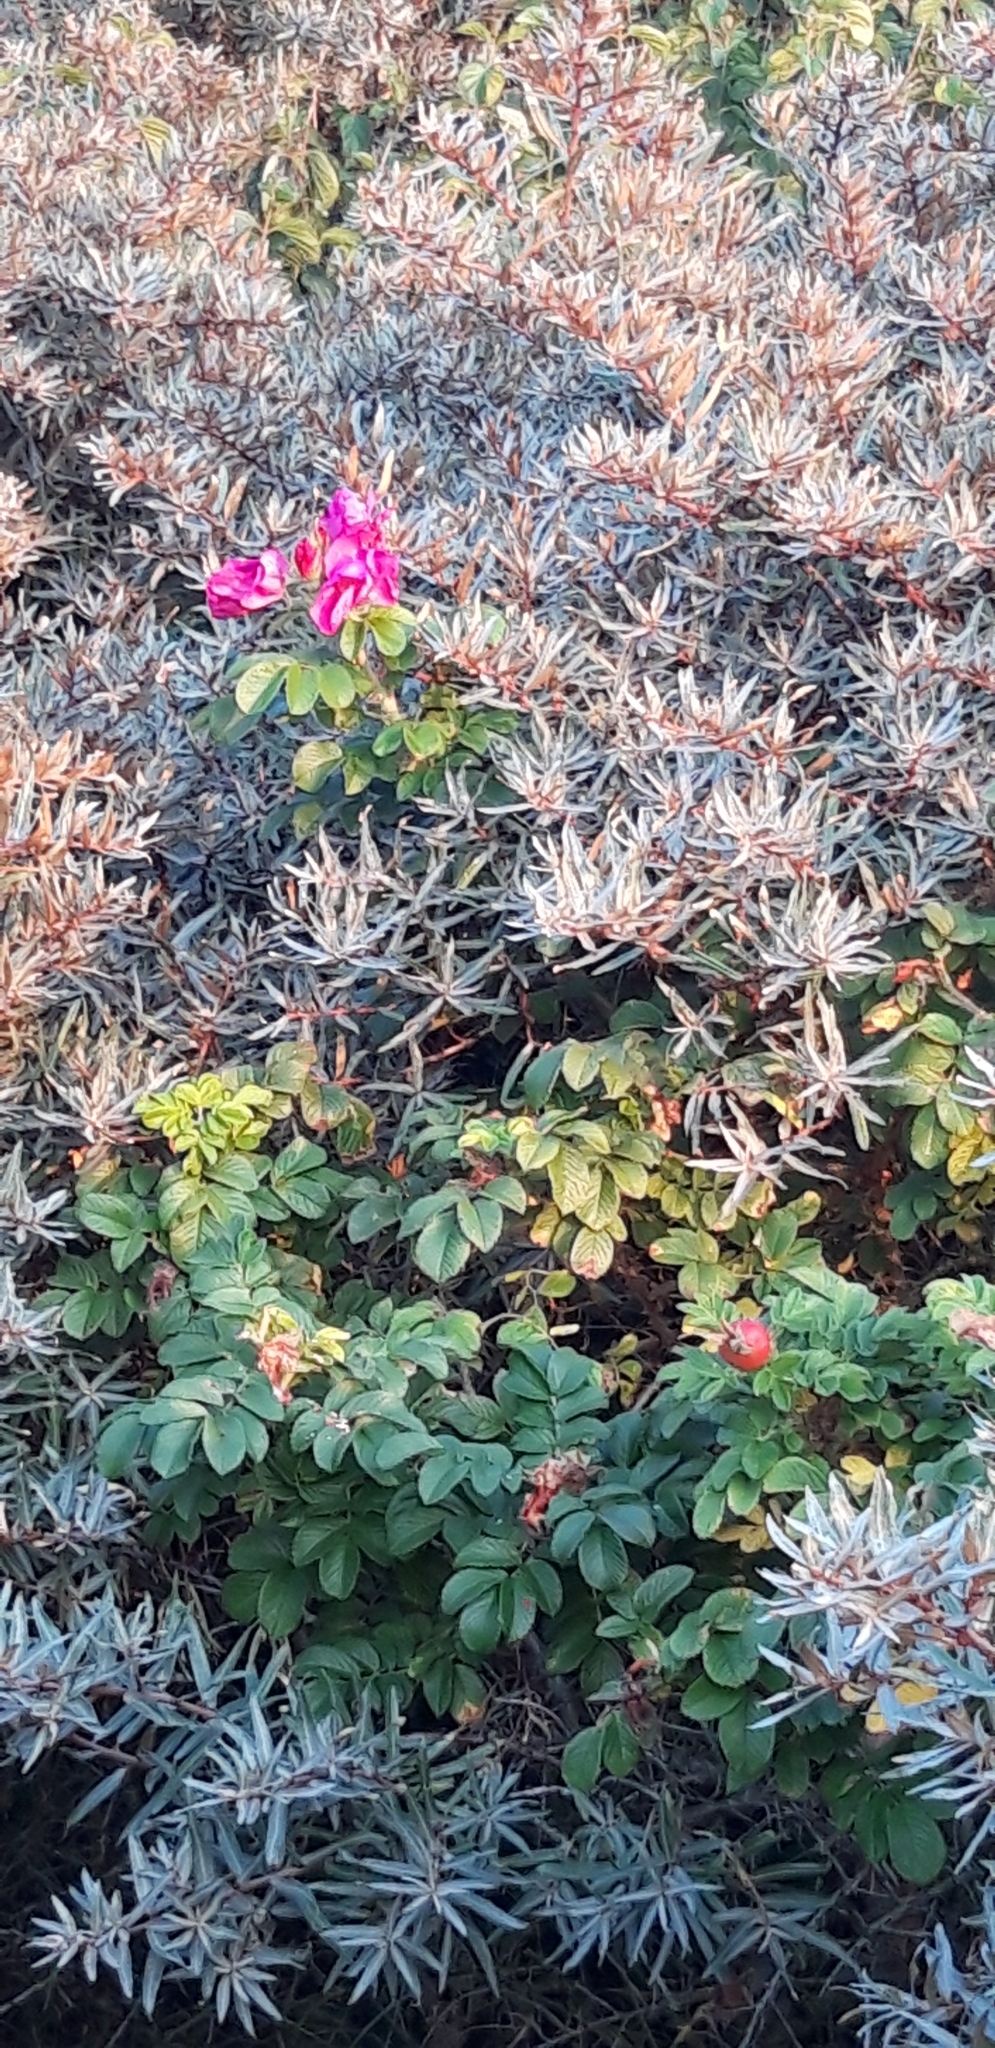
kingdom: Plantae
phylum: Tracheophyta
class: Magnoliopsida
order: Rosales
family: Rosaceae
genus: Rosa
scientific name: Rosa rugosa
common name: Japanese rose
